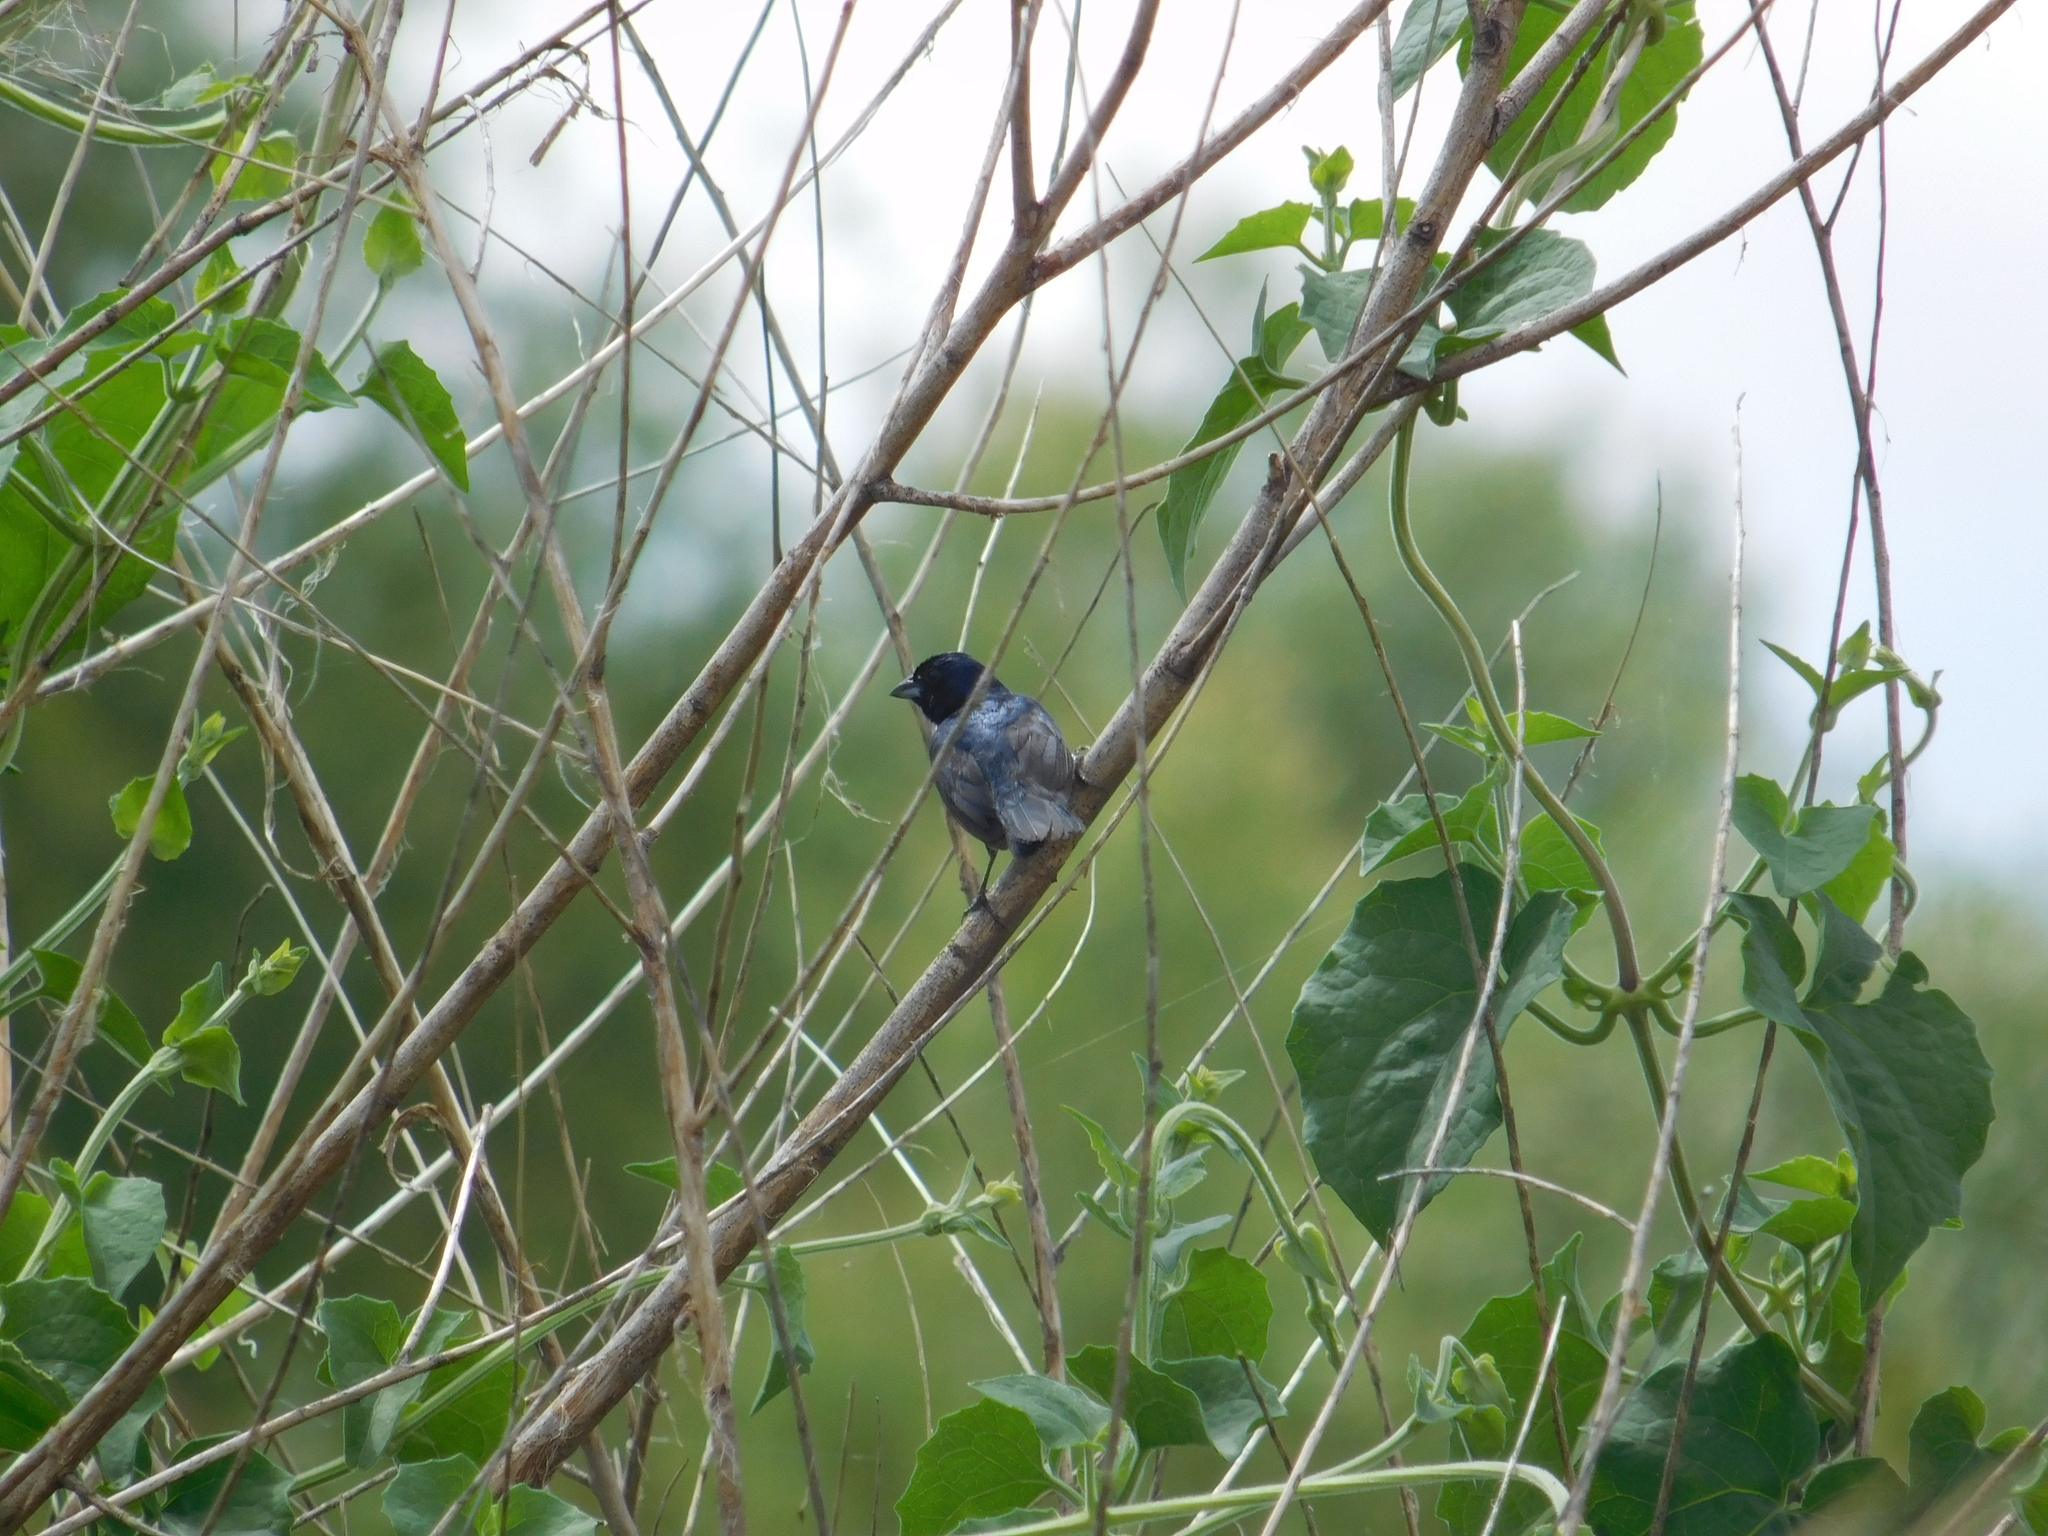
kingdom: Animalia
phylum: Chordata
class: Aves
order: Passeriformes
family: Thraupidae
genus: Volatinia
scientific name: Volatinia jacarina
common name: Blue-black grassquit
